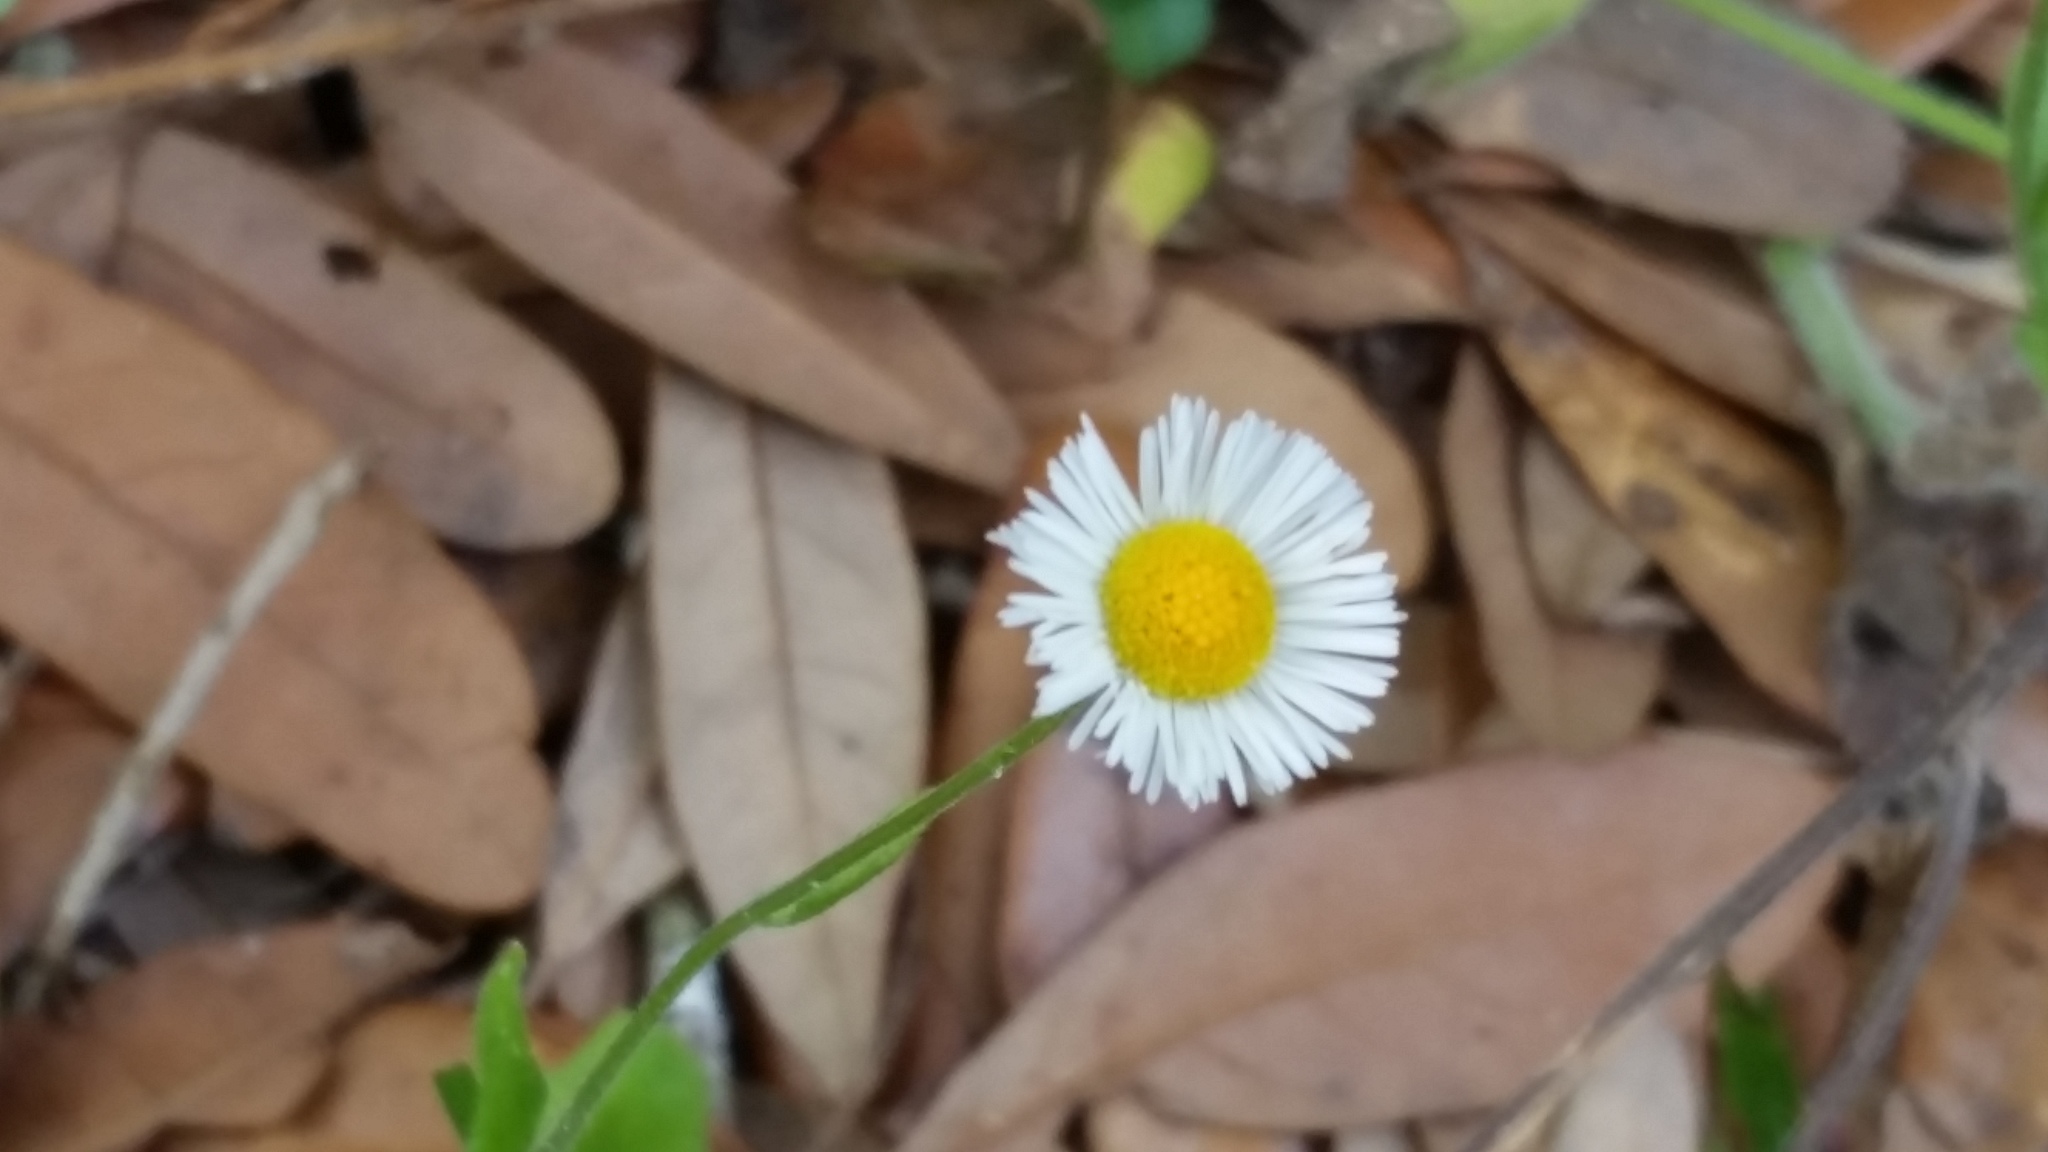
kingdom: Plantae
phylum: Tracheophyta
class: Magnoliopsida
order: Asterales
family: Asteraceae
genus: Erigeron
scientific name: Erigeron quercifolius
